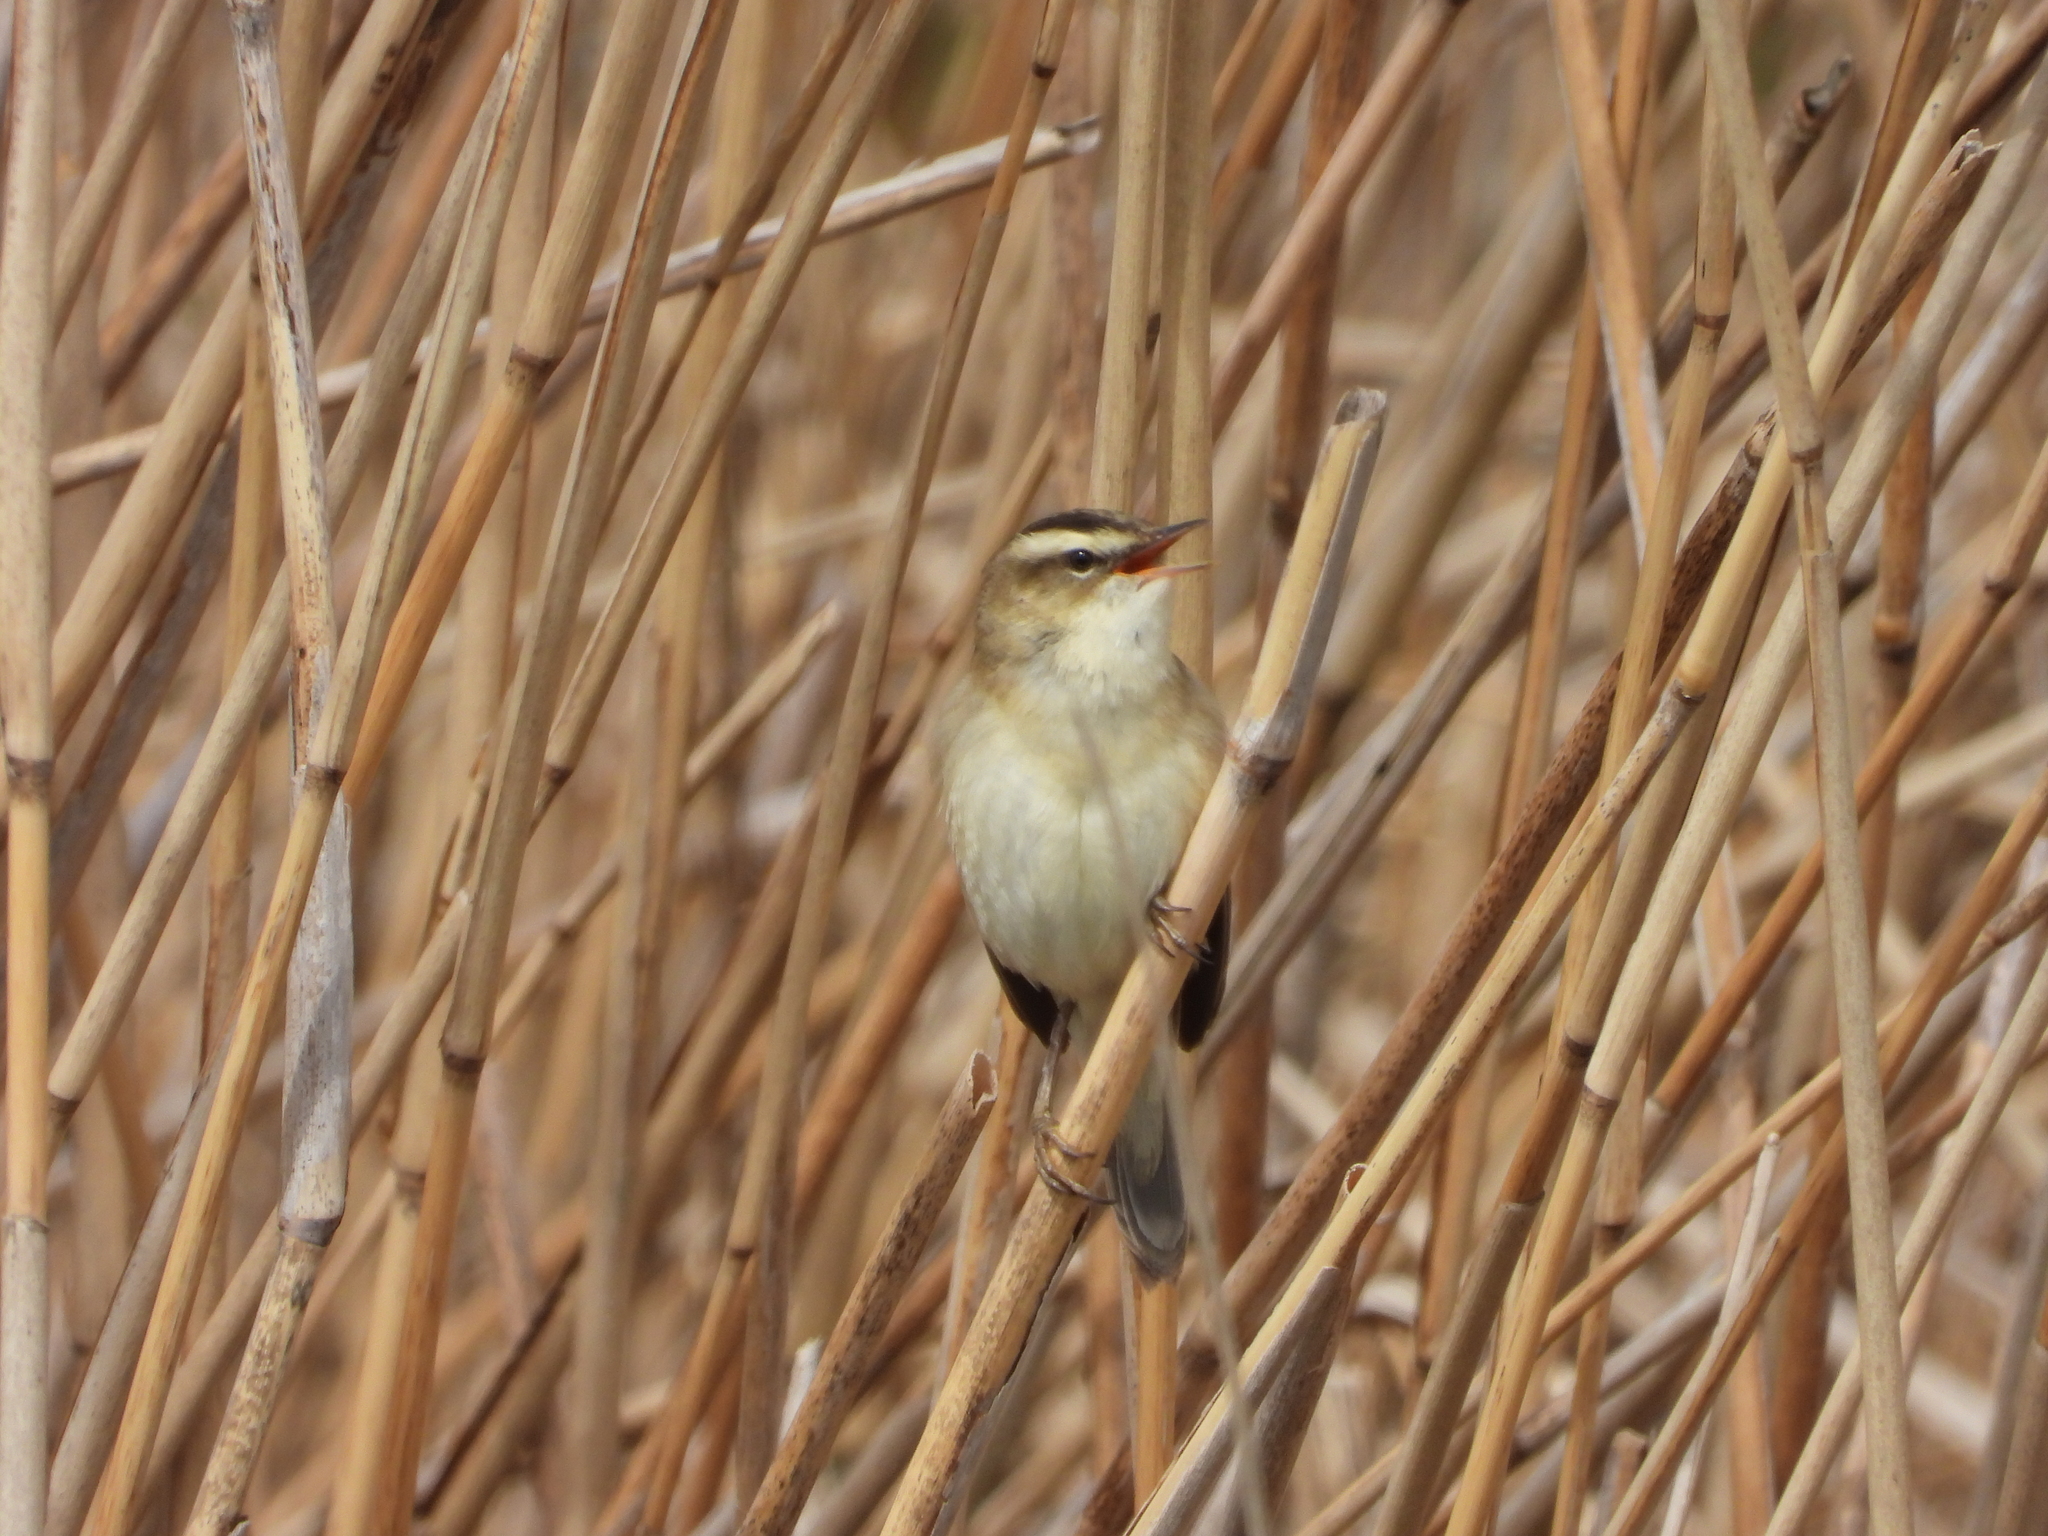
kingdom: Animalia
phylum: Chordata
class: Aves
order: Passeriformes
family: Acrocephalidae
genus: Acrocephalus
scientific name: Acrocephalus schoenobaenus
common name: Sedge warbler
